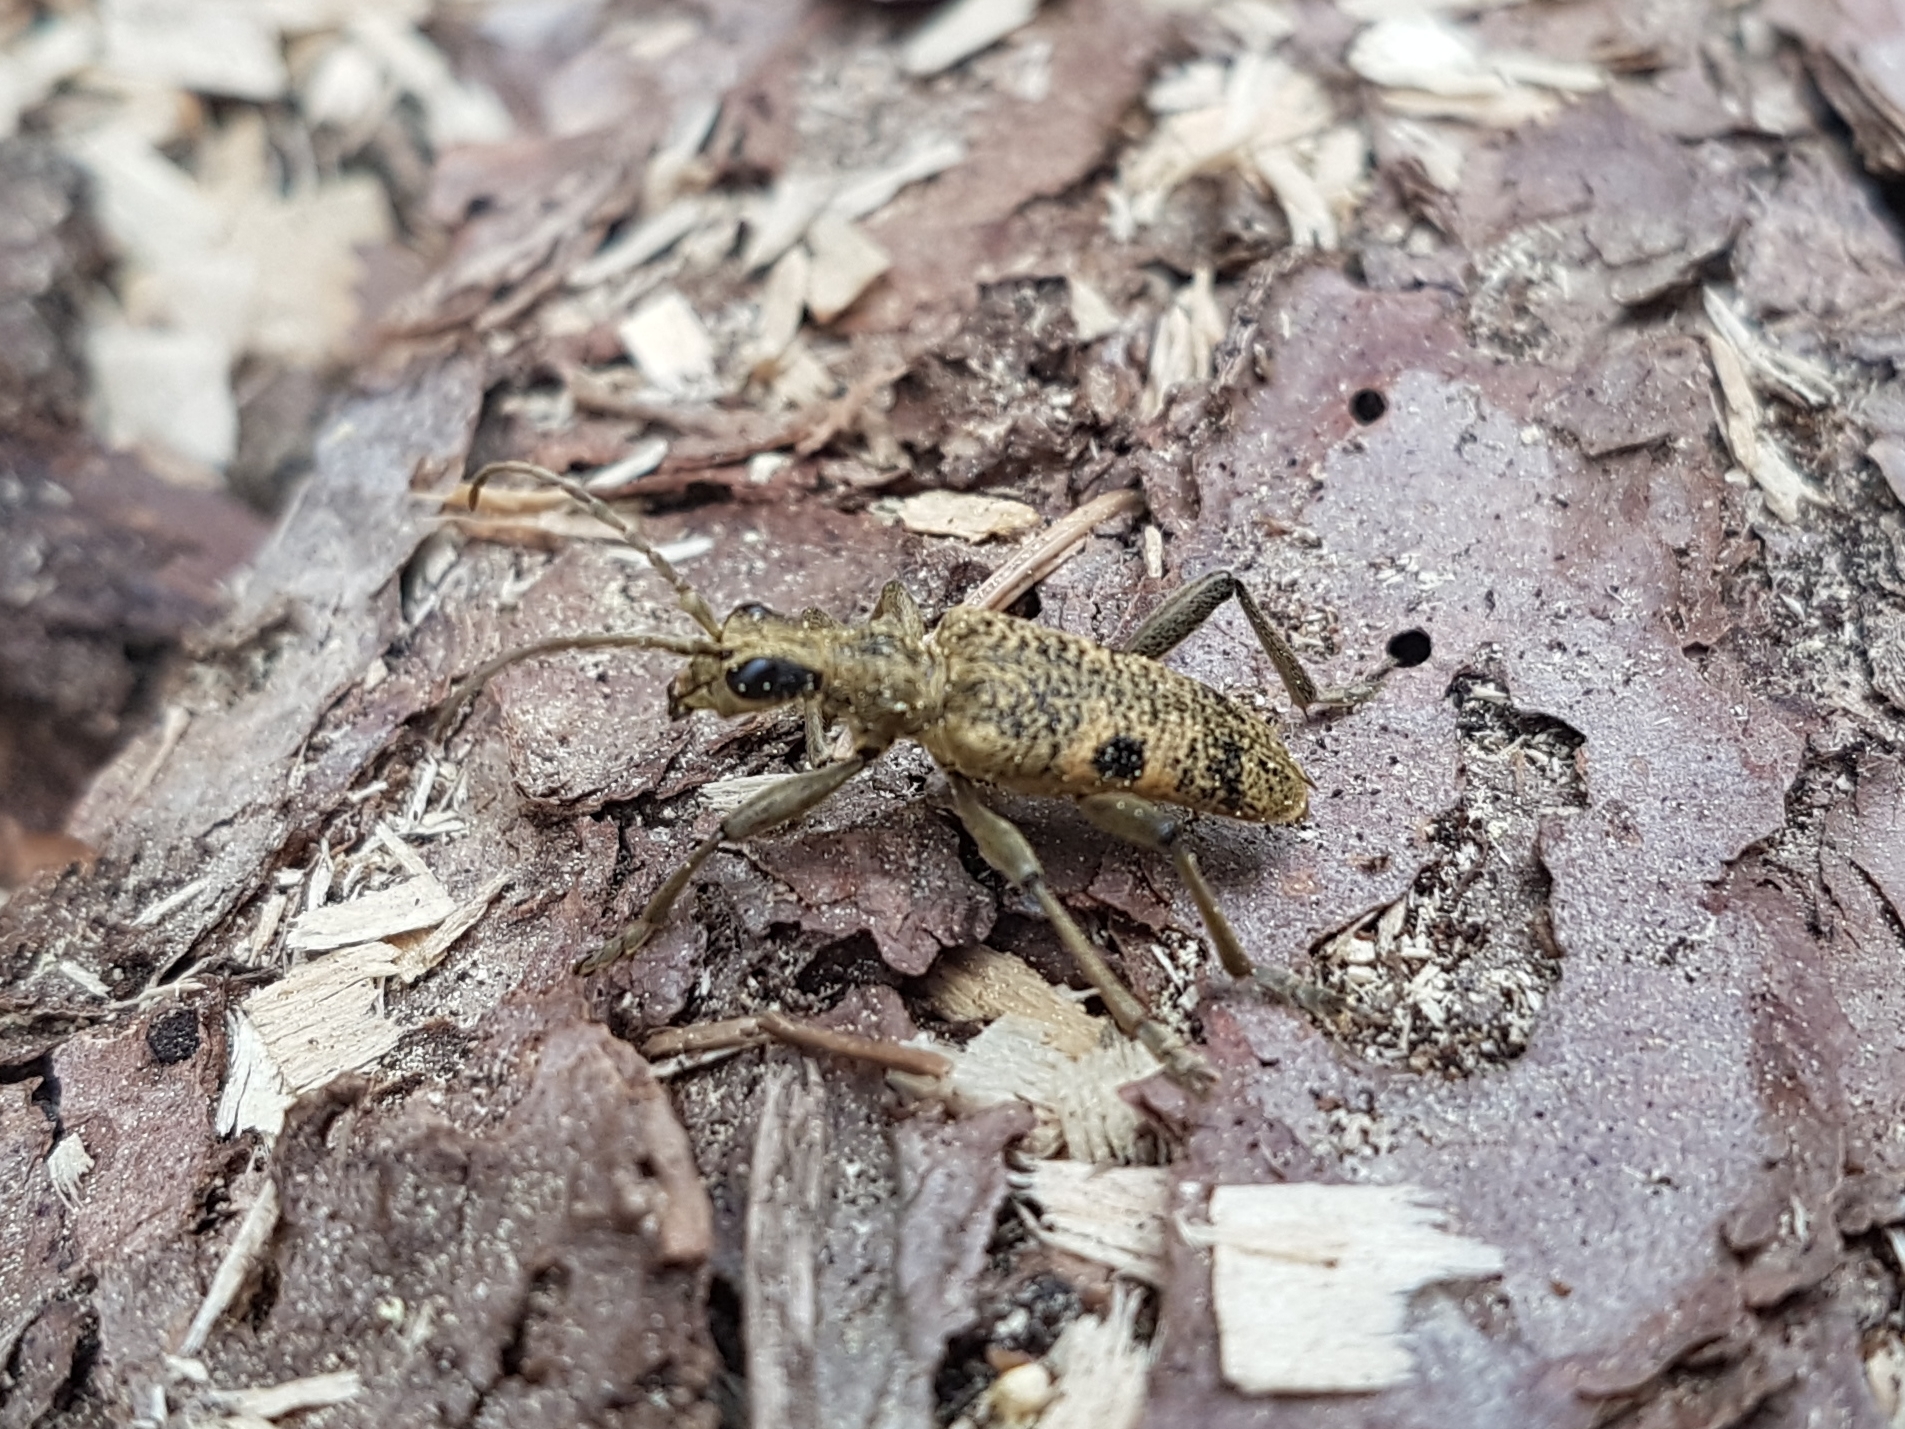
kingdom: Animalia
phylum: Arthropoda
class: Insecta
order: Coleoptera
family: Cerambycidae
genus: Rhagium
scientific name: Rhagium mordax
